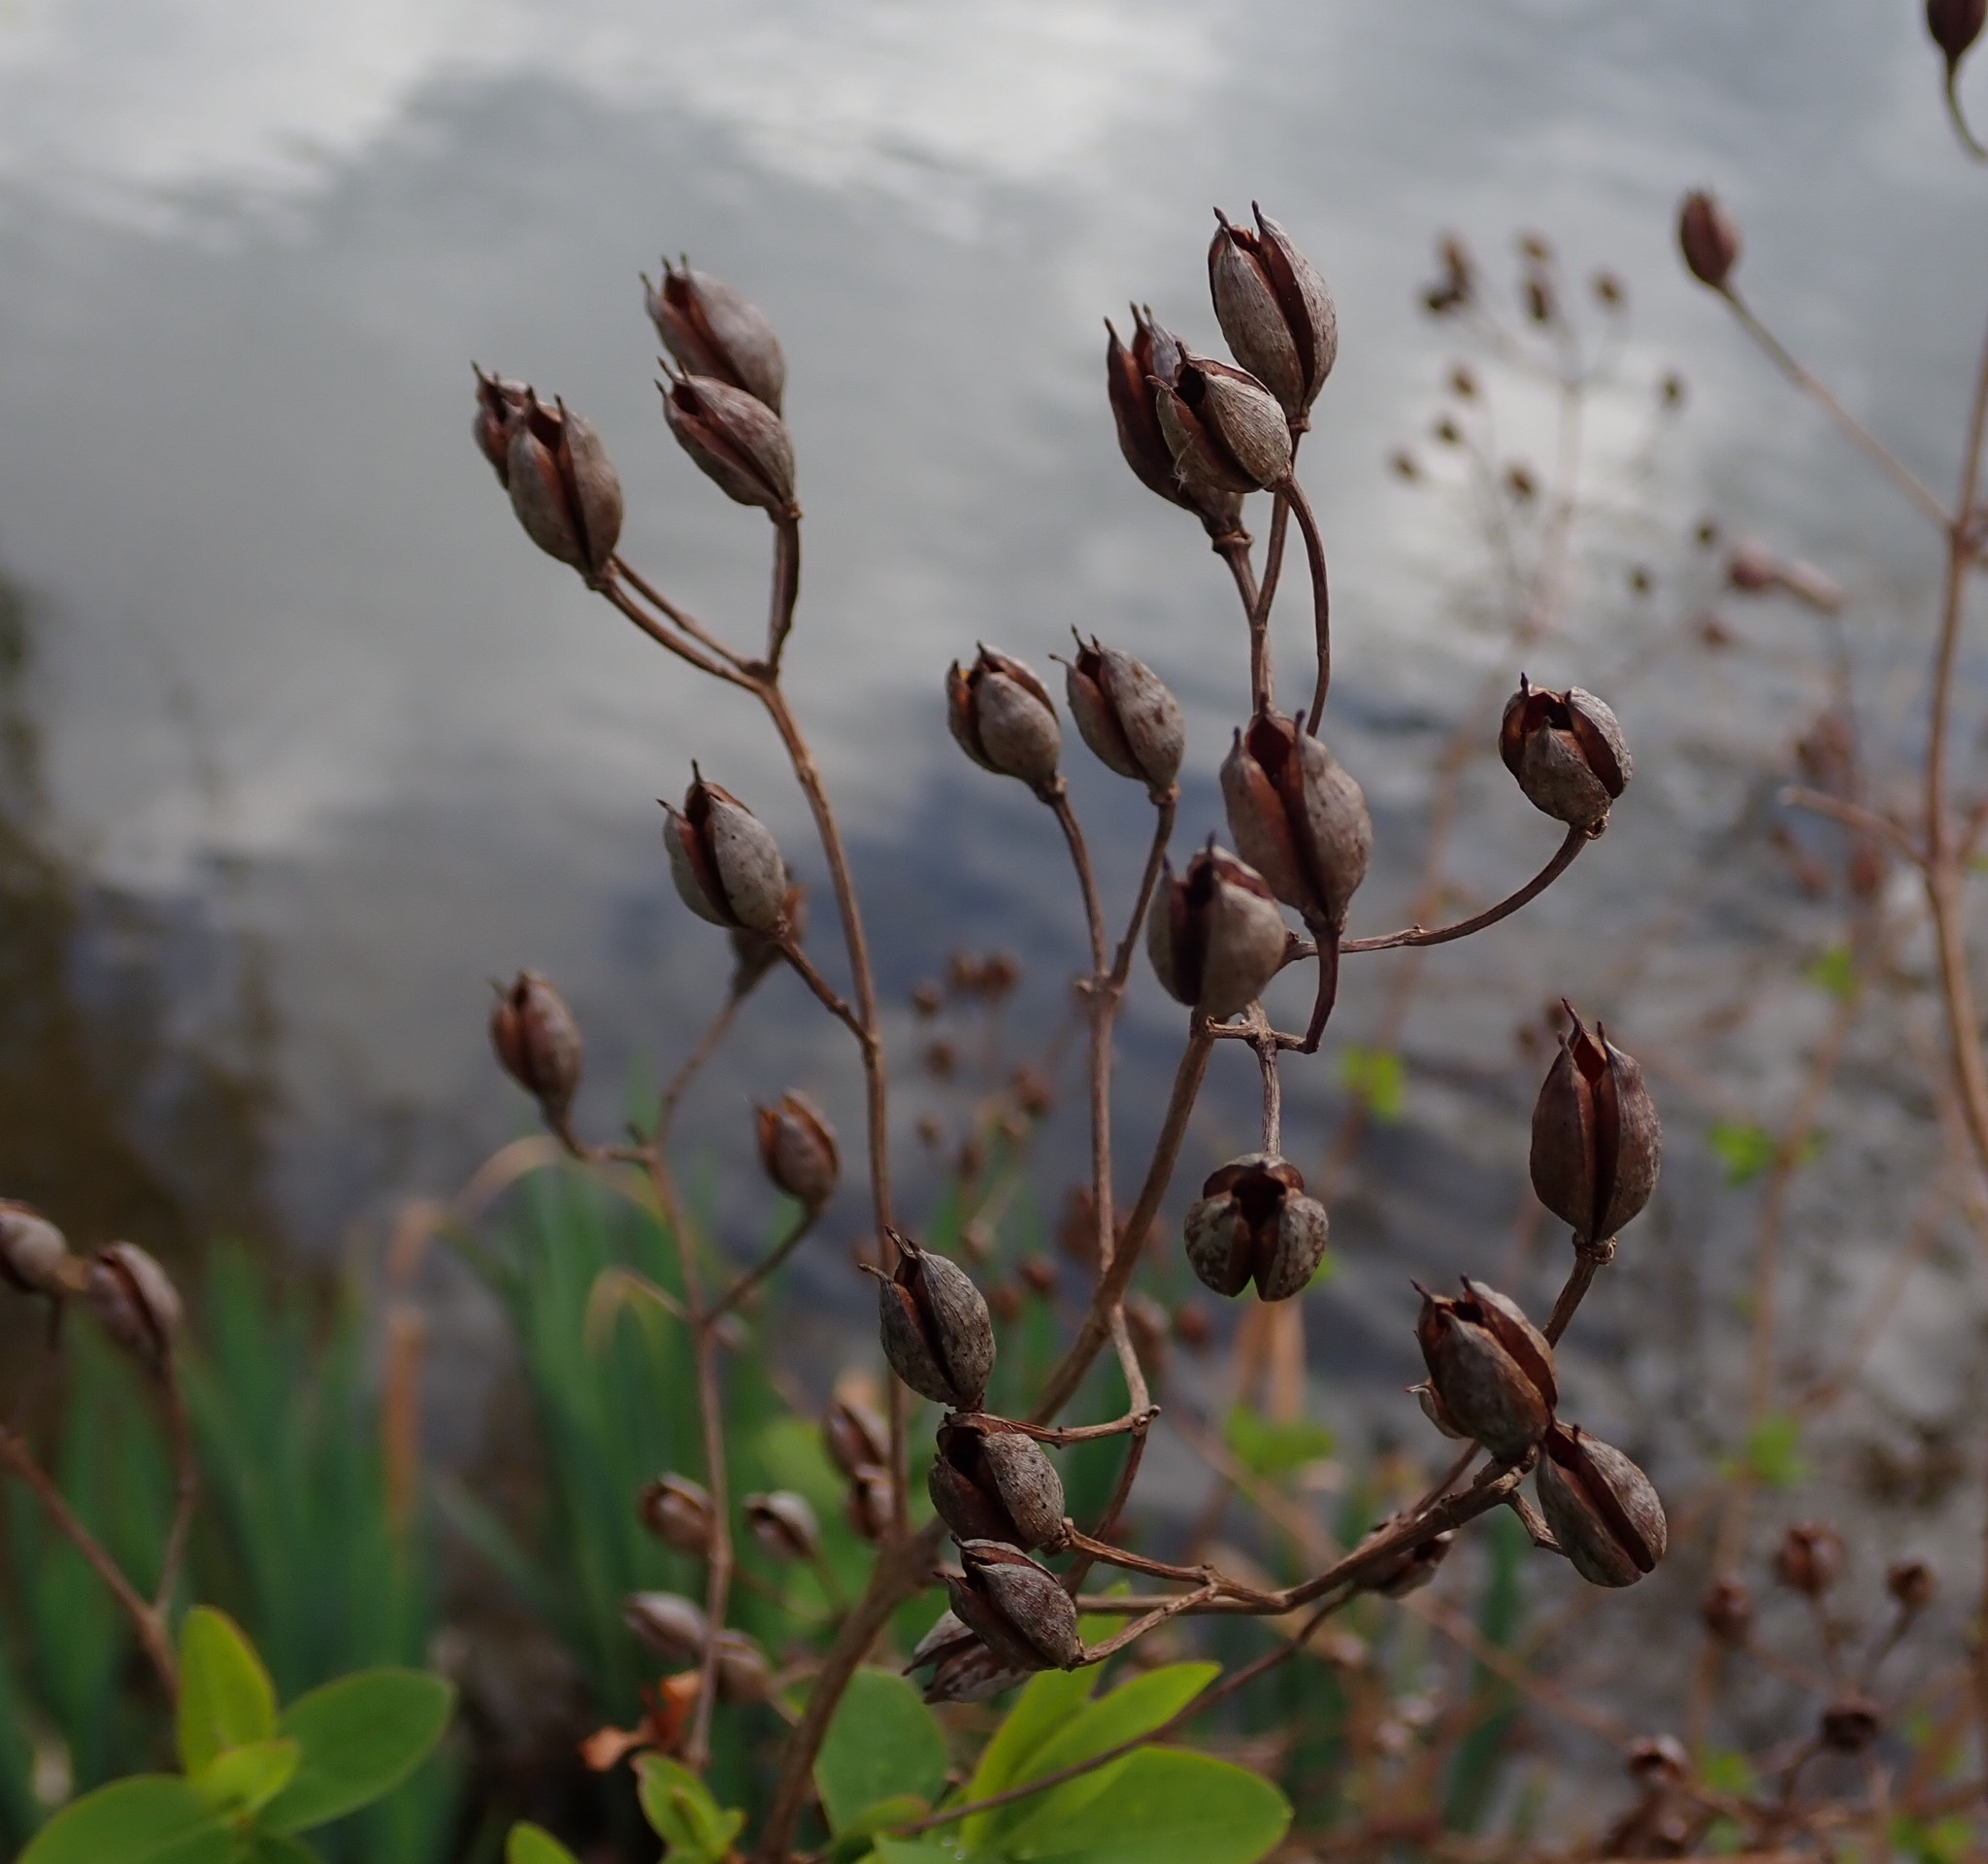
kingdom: Plantae
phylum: Tracheophyta
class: Magnoliopsida
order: Malpighiales
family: Hypericaceae
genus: Hypericum
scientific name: Hypericum hircinum
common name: Stinking tutsan
